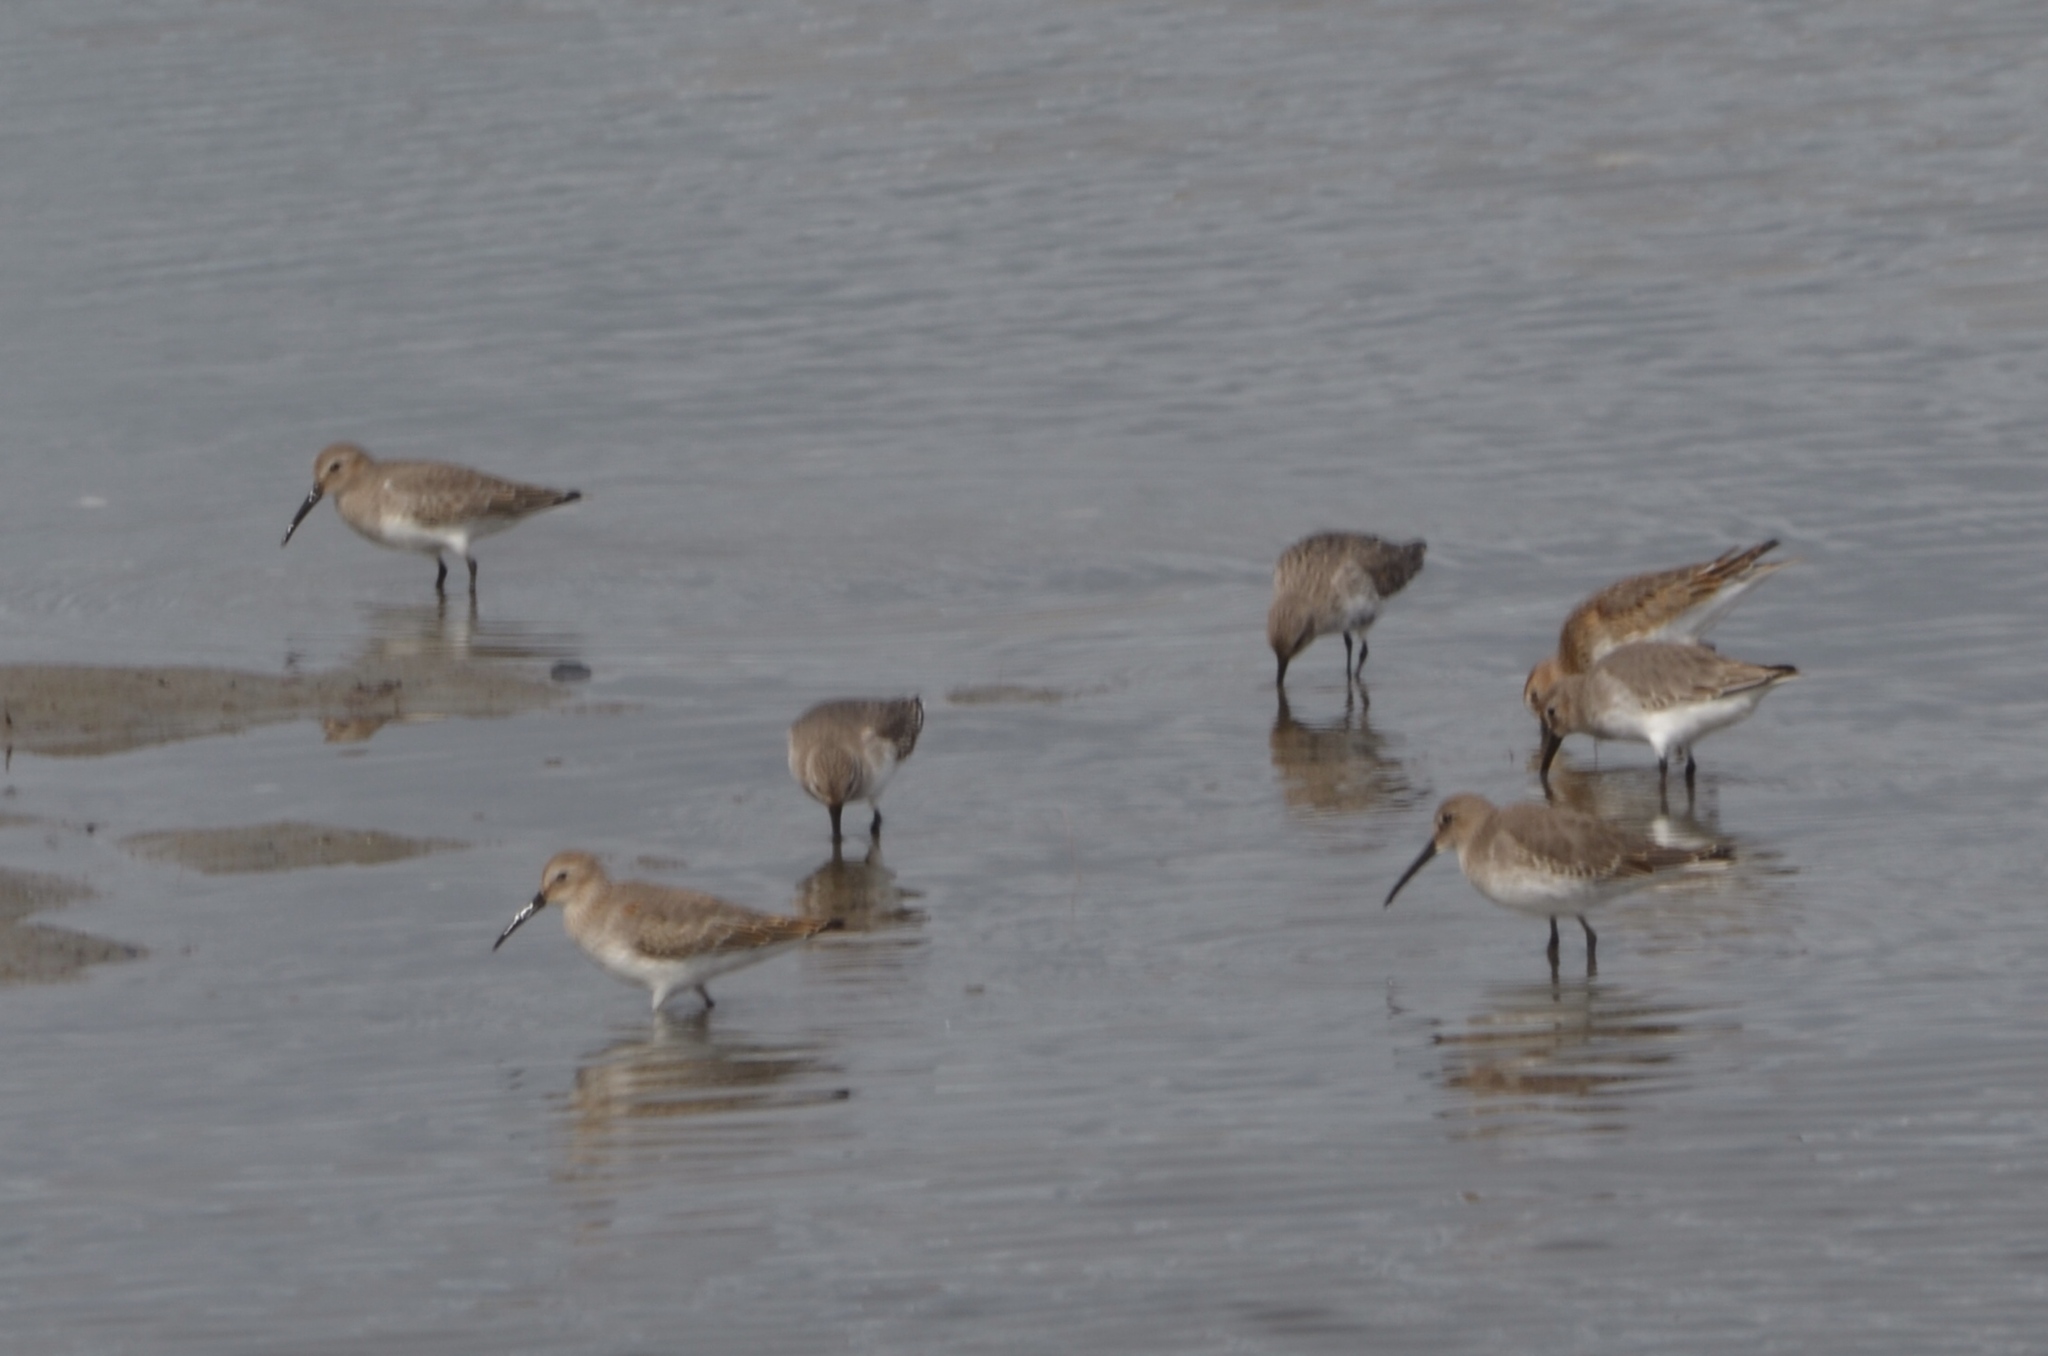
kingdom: Animalia
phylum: Chordata
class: Aves
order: Charadriiformes
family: Scolopacidae
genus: Calidris
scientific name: Calidris alpina
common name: Dunlin
